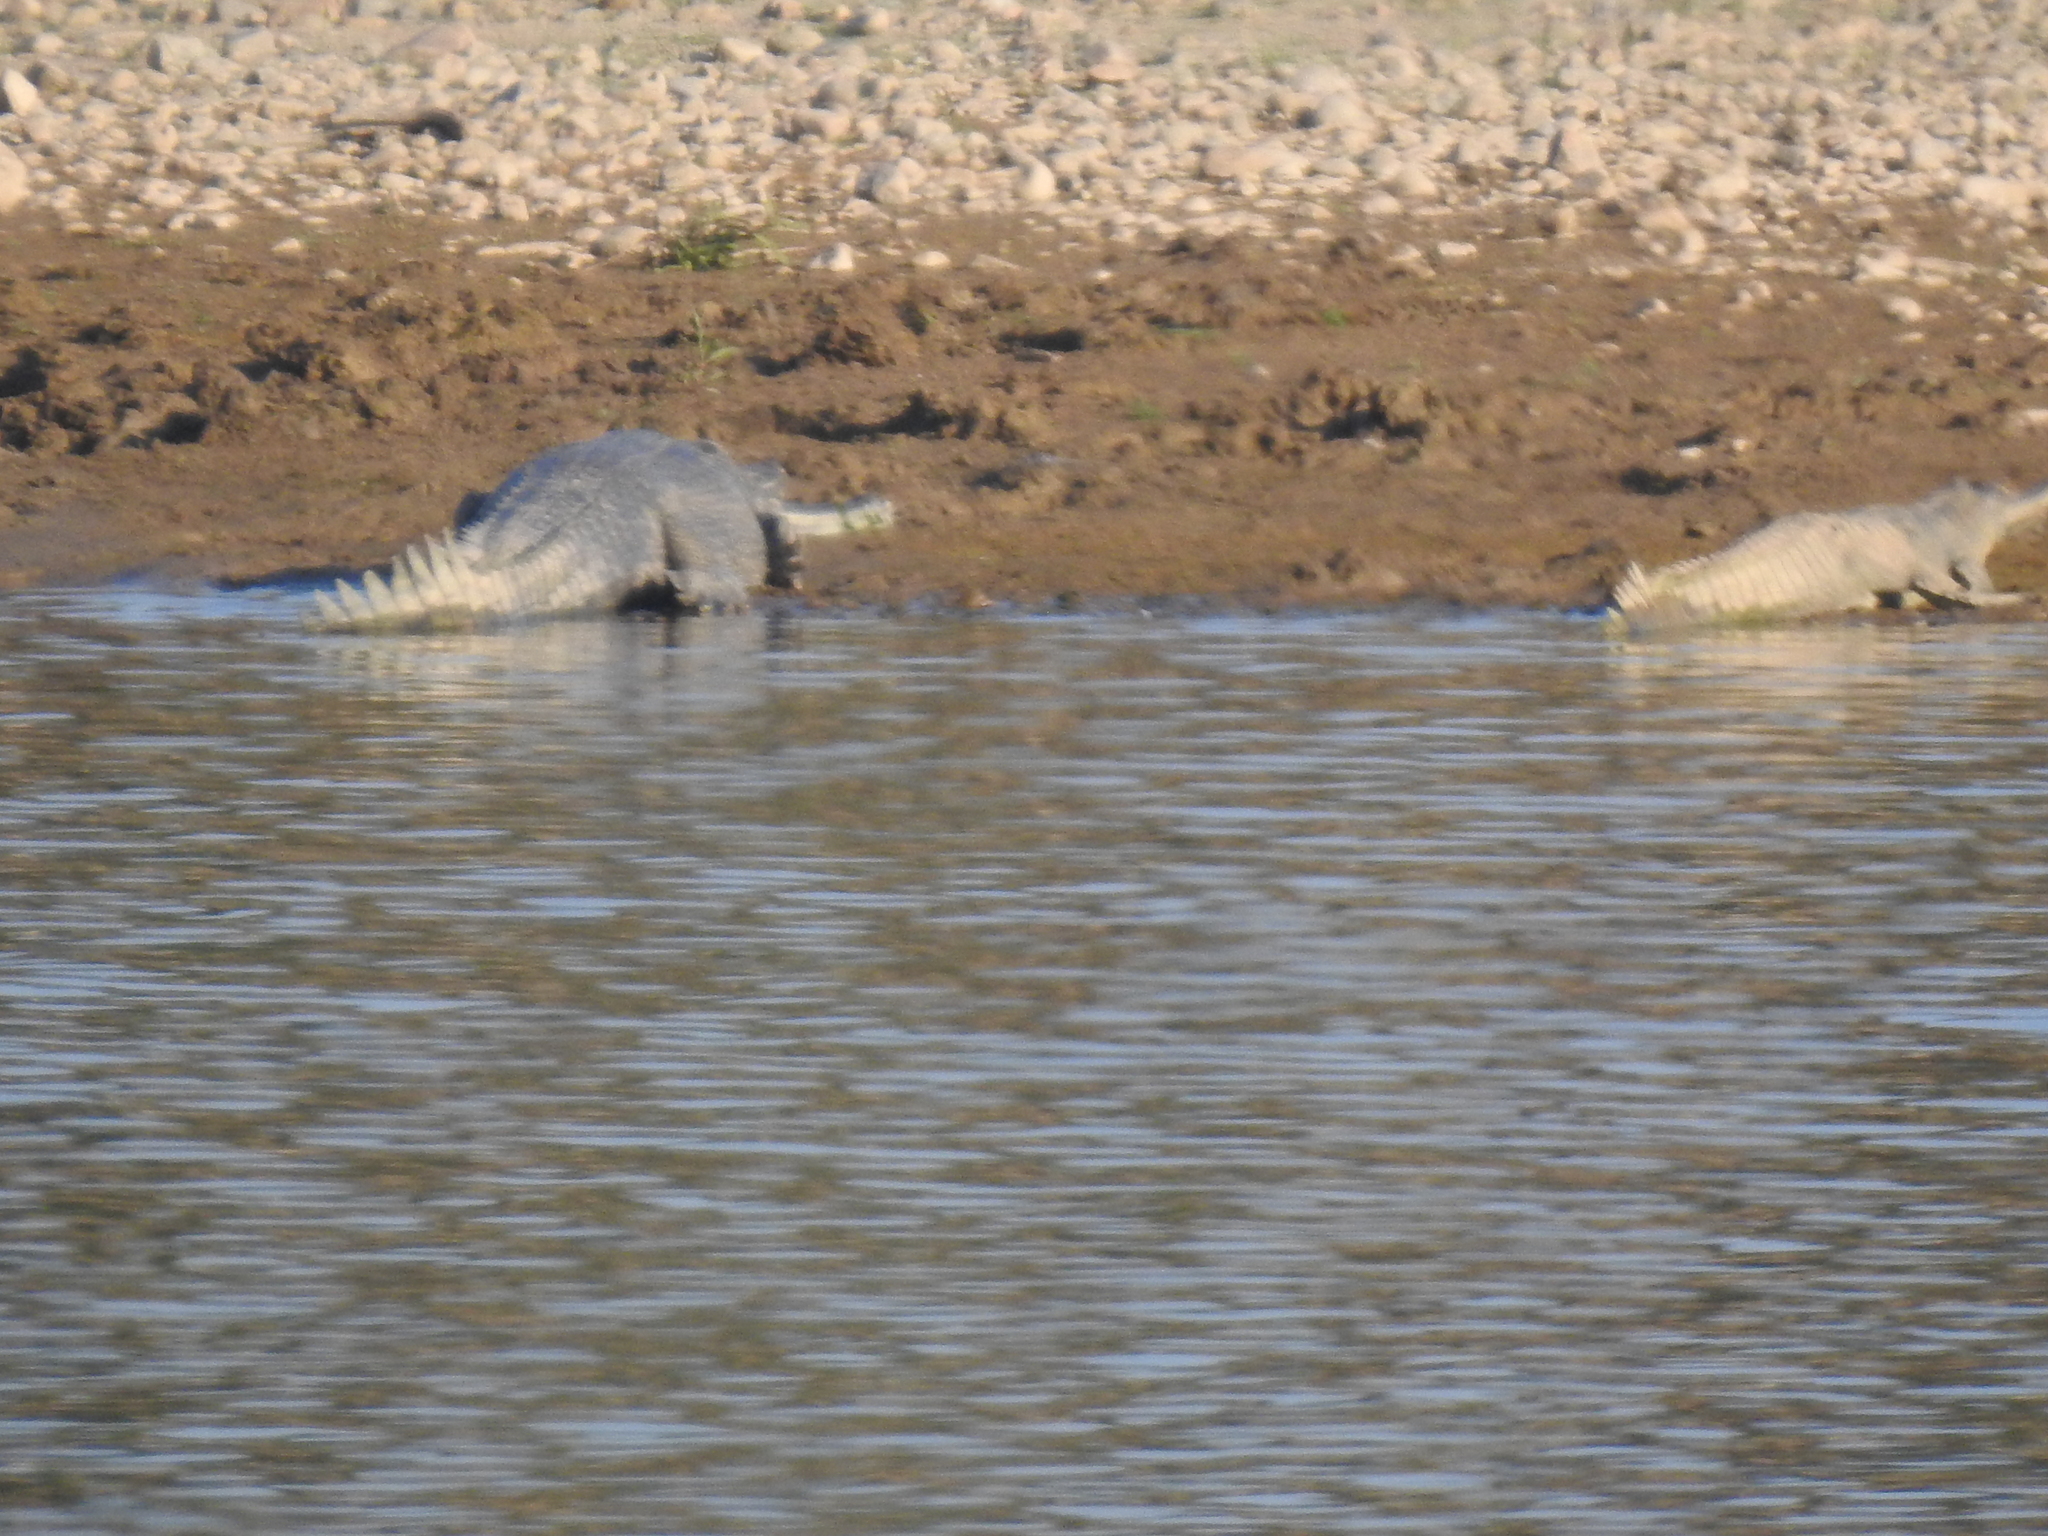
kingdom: Animalia
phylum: Chordata
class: Crocodylia
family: Gavialidae
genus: Gavialis
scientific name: Gavialis gangeticus
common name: Gharial
